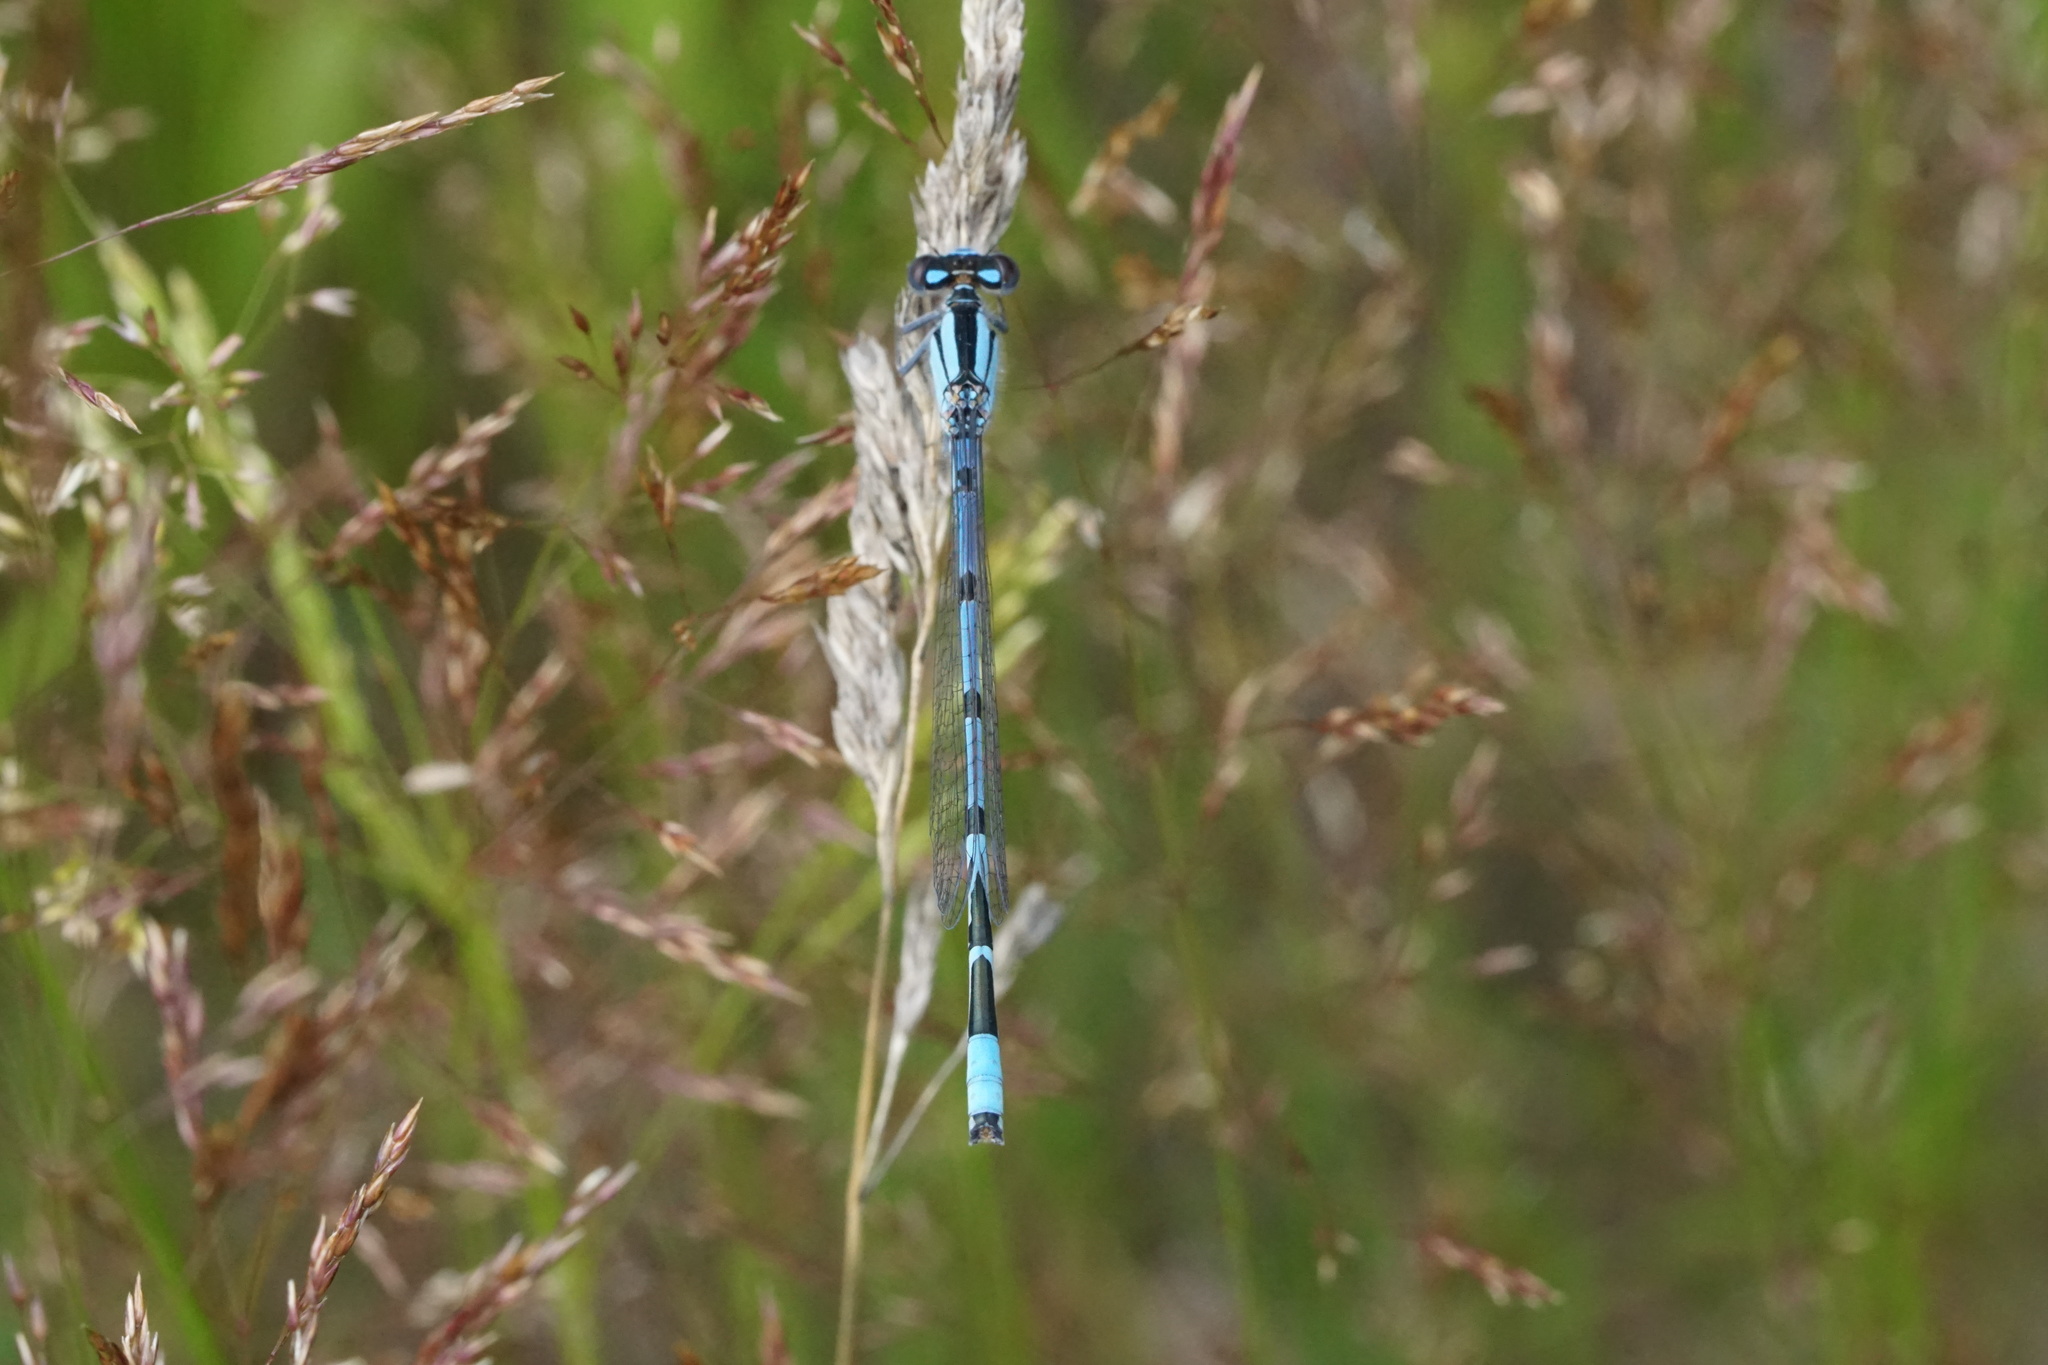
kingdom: Animalia
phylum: Arthropoda
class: Insecta
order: Odonata
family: Coenagrionidae
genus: Enallagma
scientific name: Enallagma civile
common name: Damselfly
